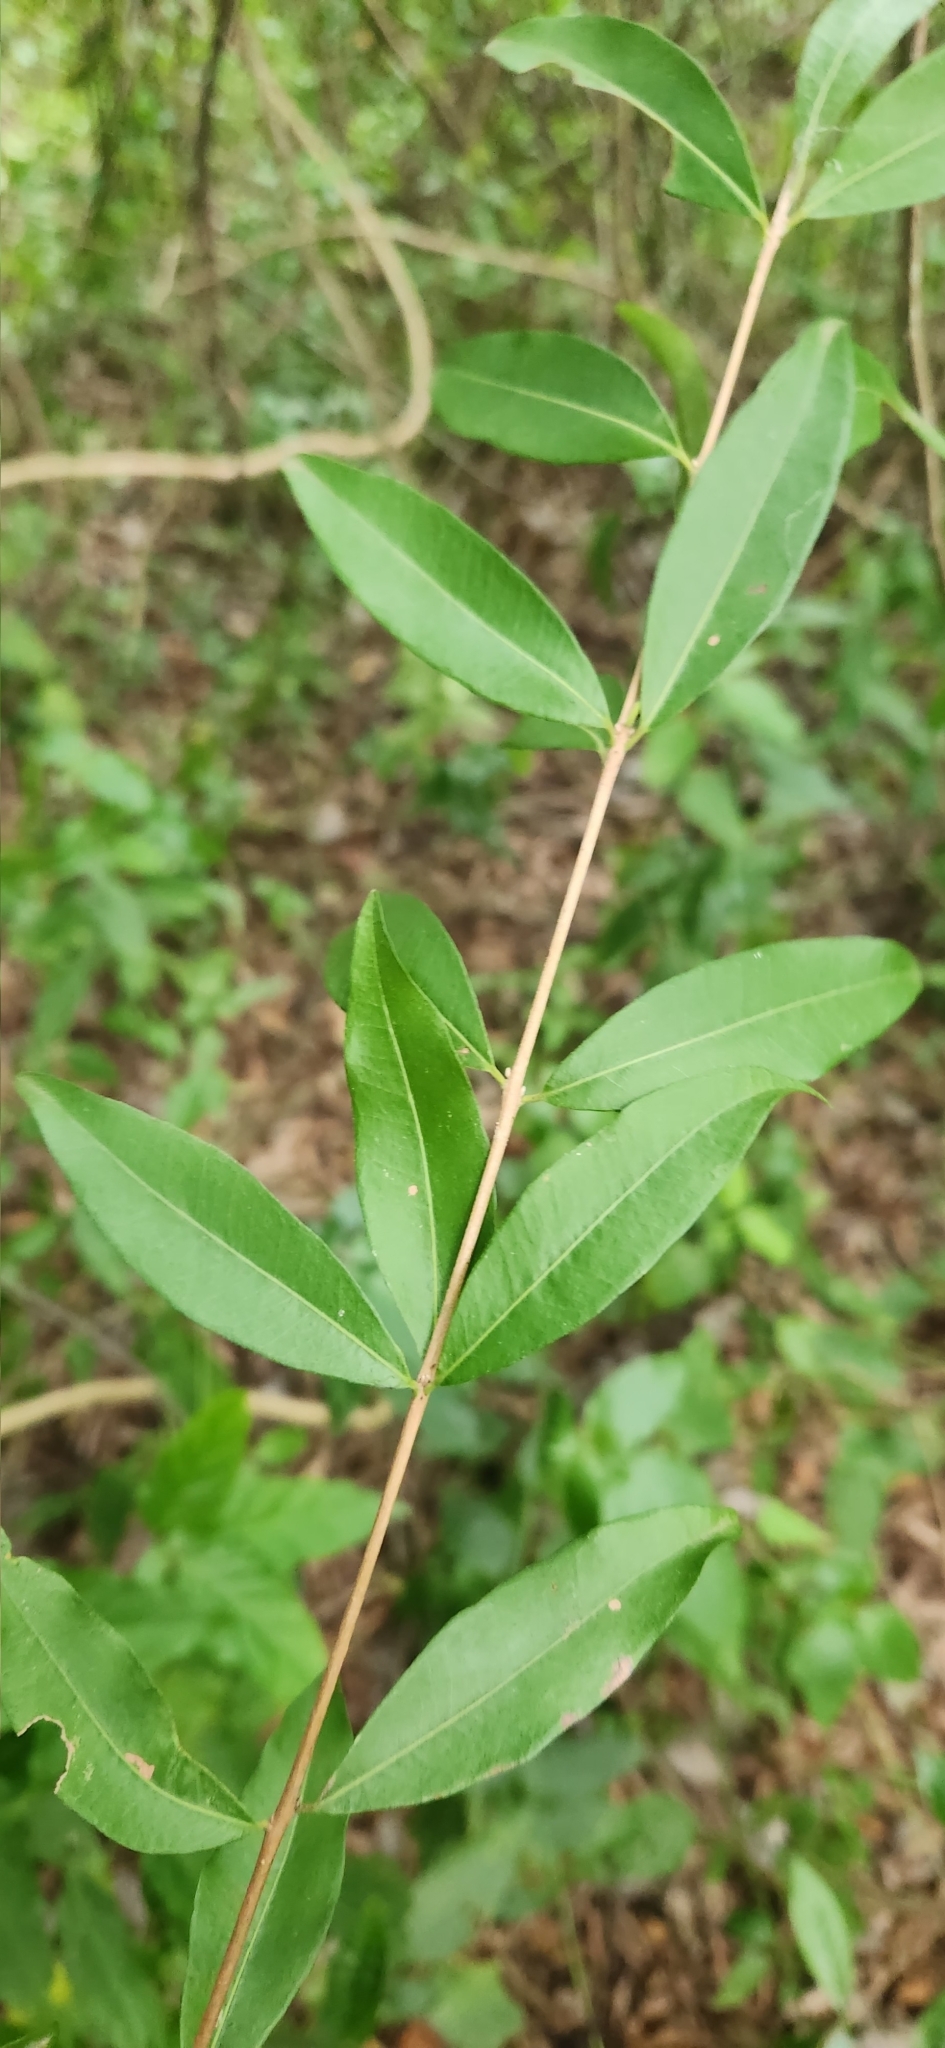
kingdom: Plantae
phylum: Tracheophyta
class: Magnoliopsida
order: Myrtales
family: Myrtaceae
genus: Eugenia
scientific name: Eugenia pyriformis
